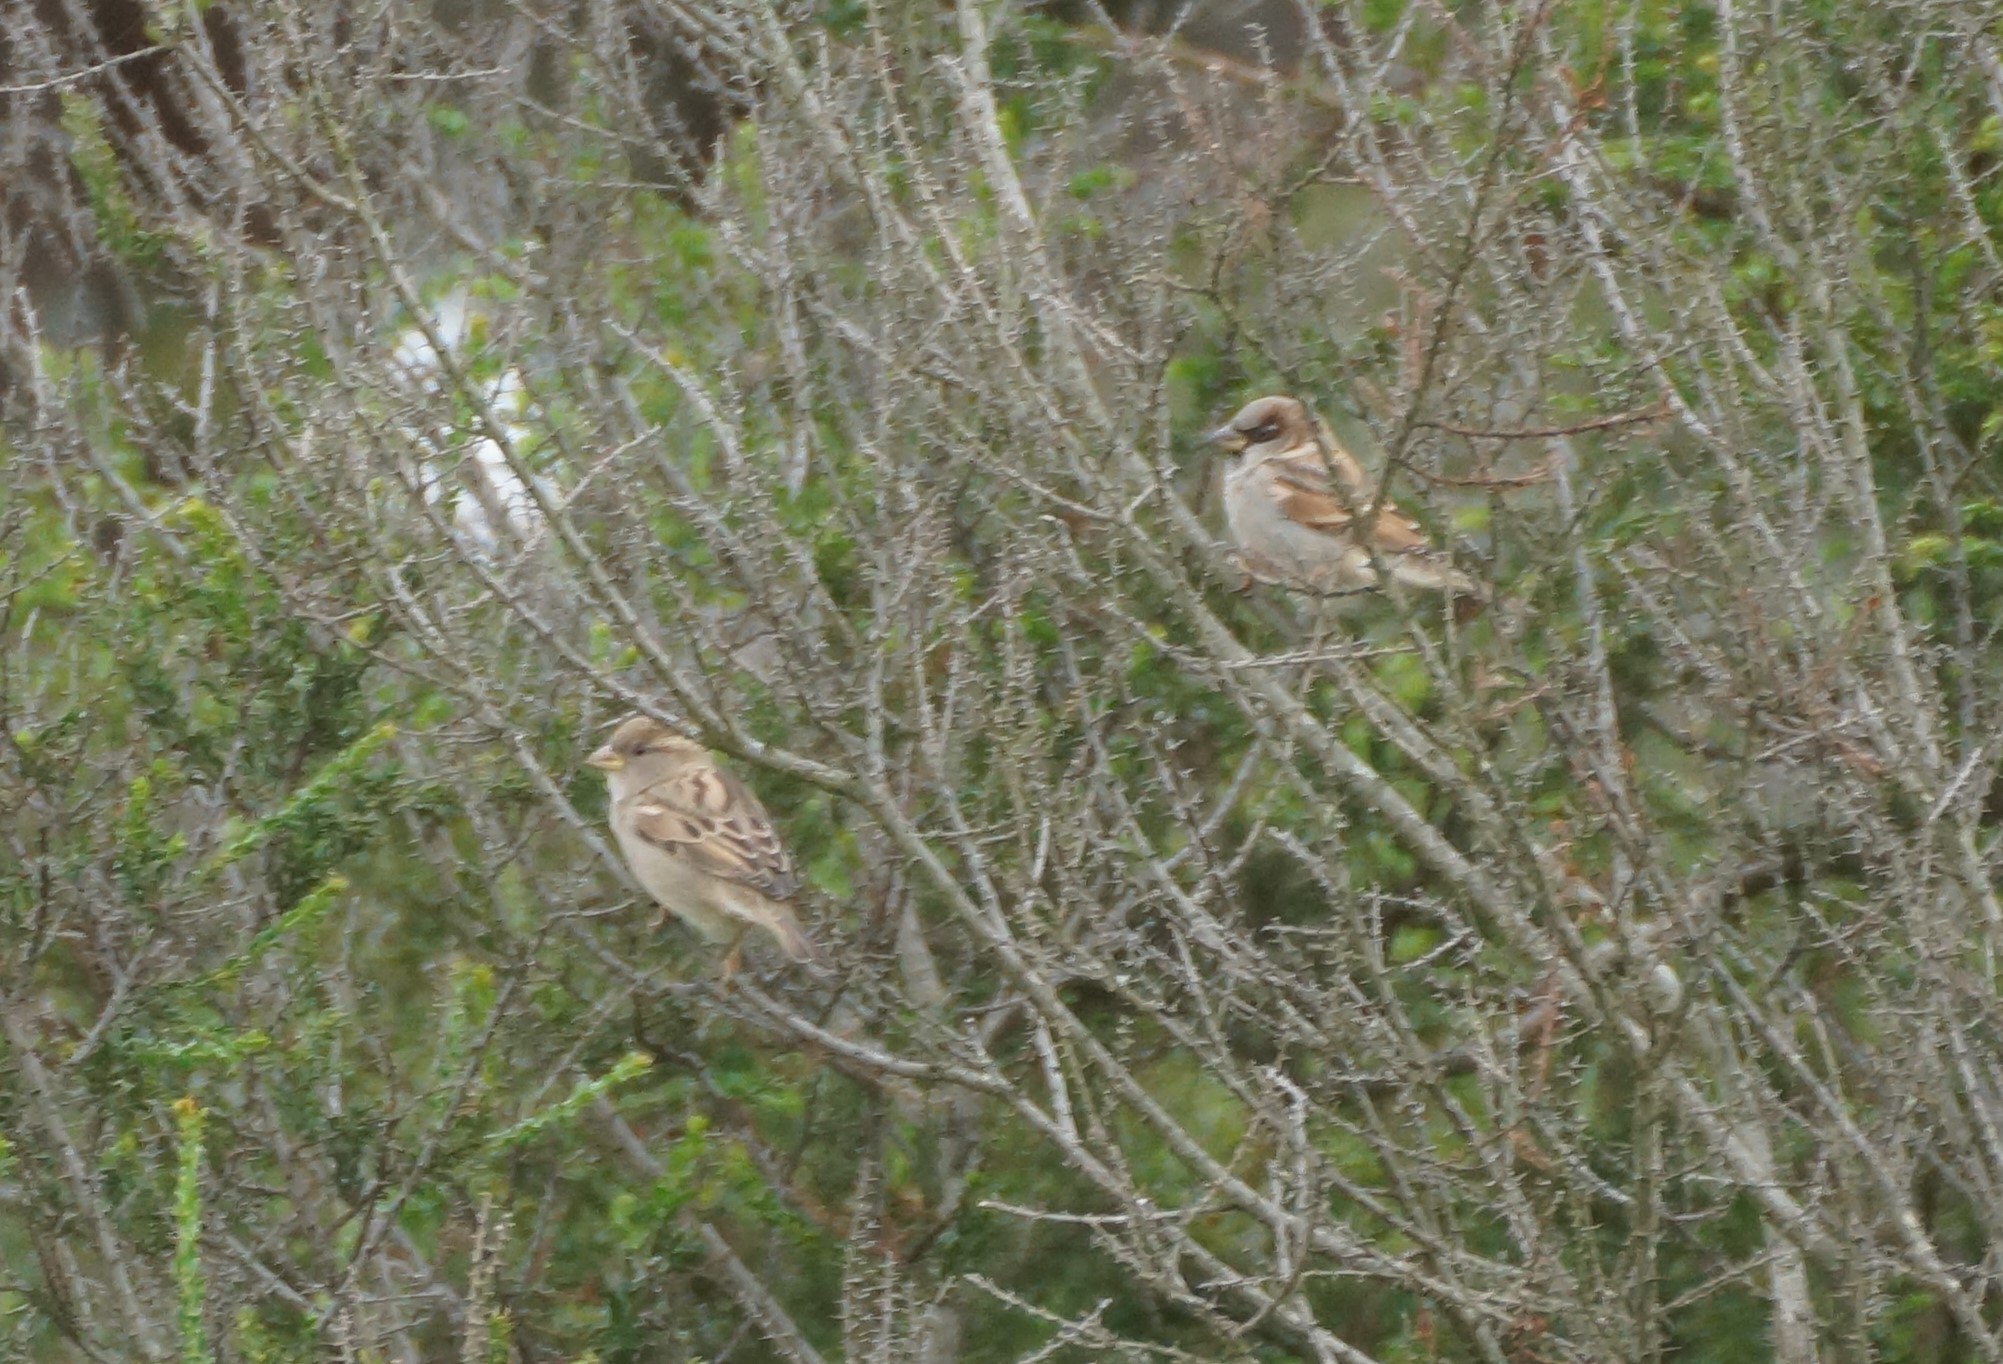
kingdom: Animalia
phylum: Chordata
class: Aves
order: Passeriformes
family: Passeridae
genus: Passer
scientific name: Passer domesticus
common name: House sparrow
